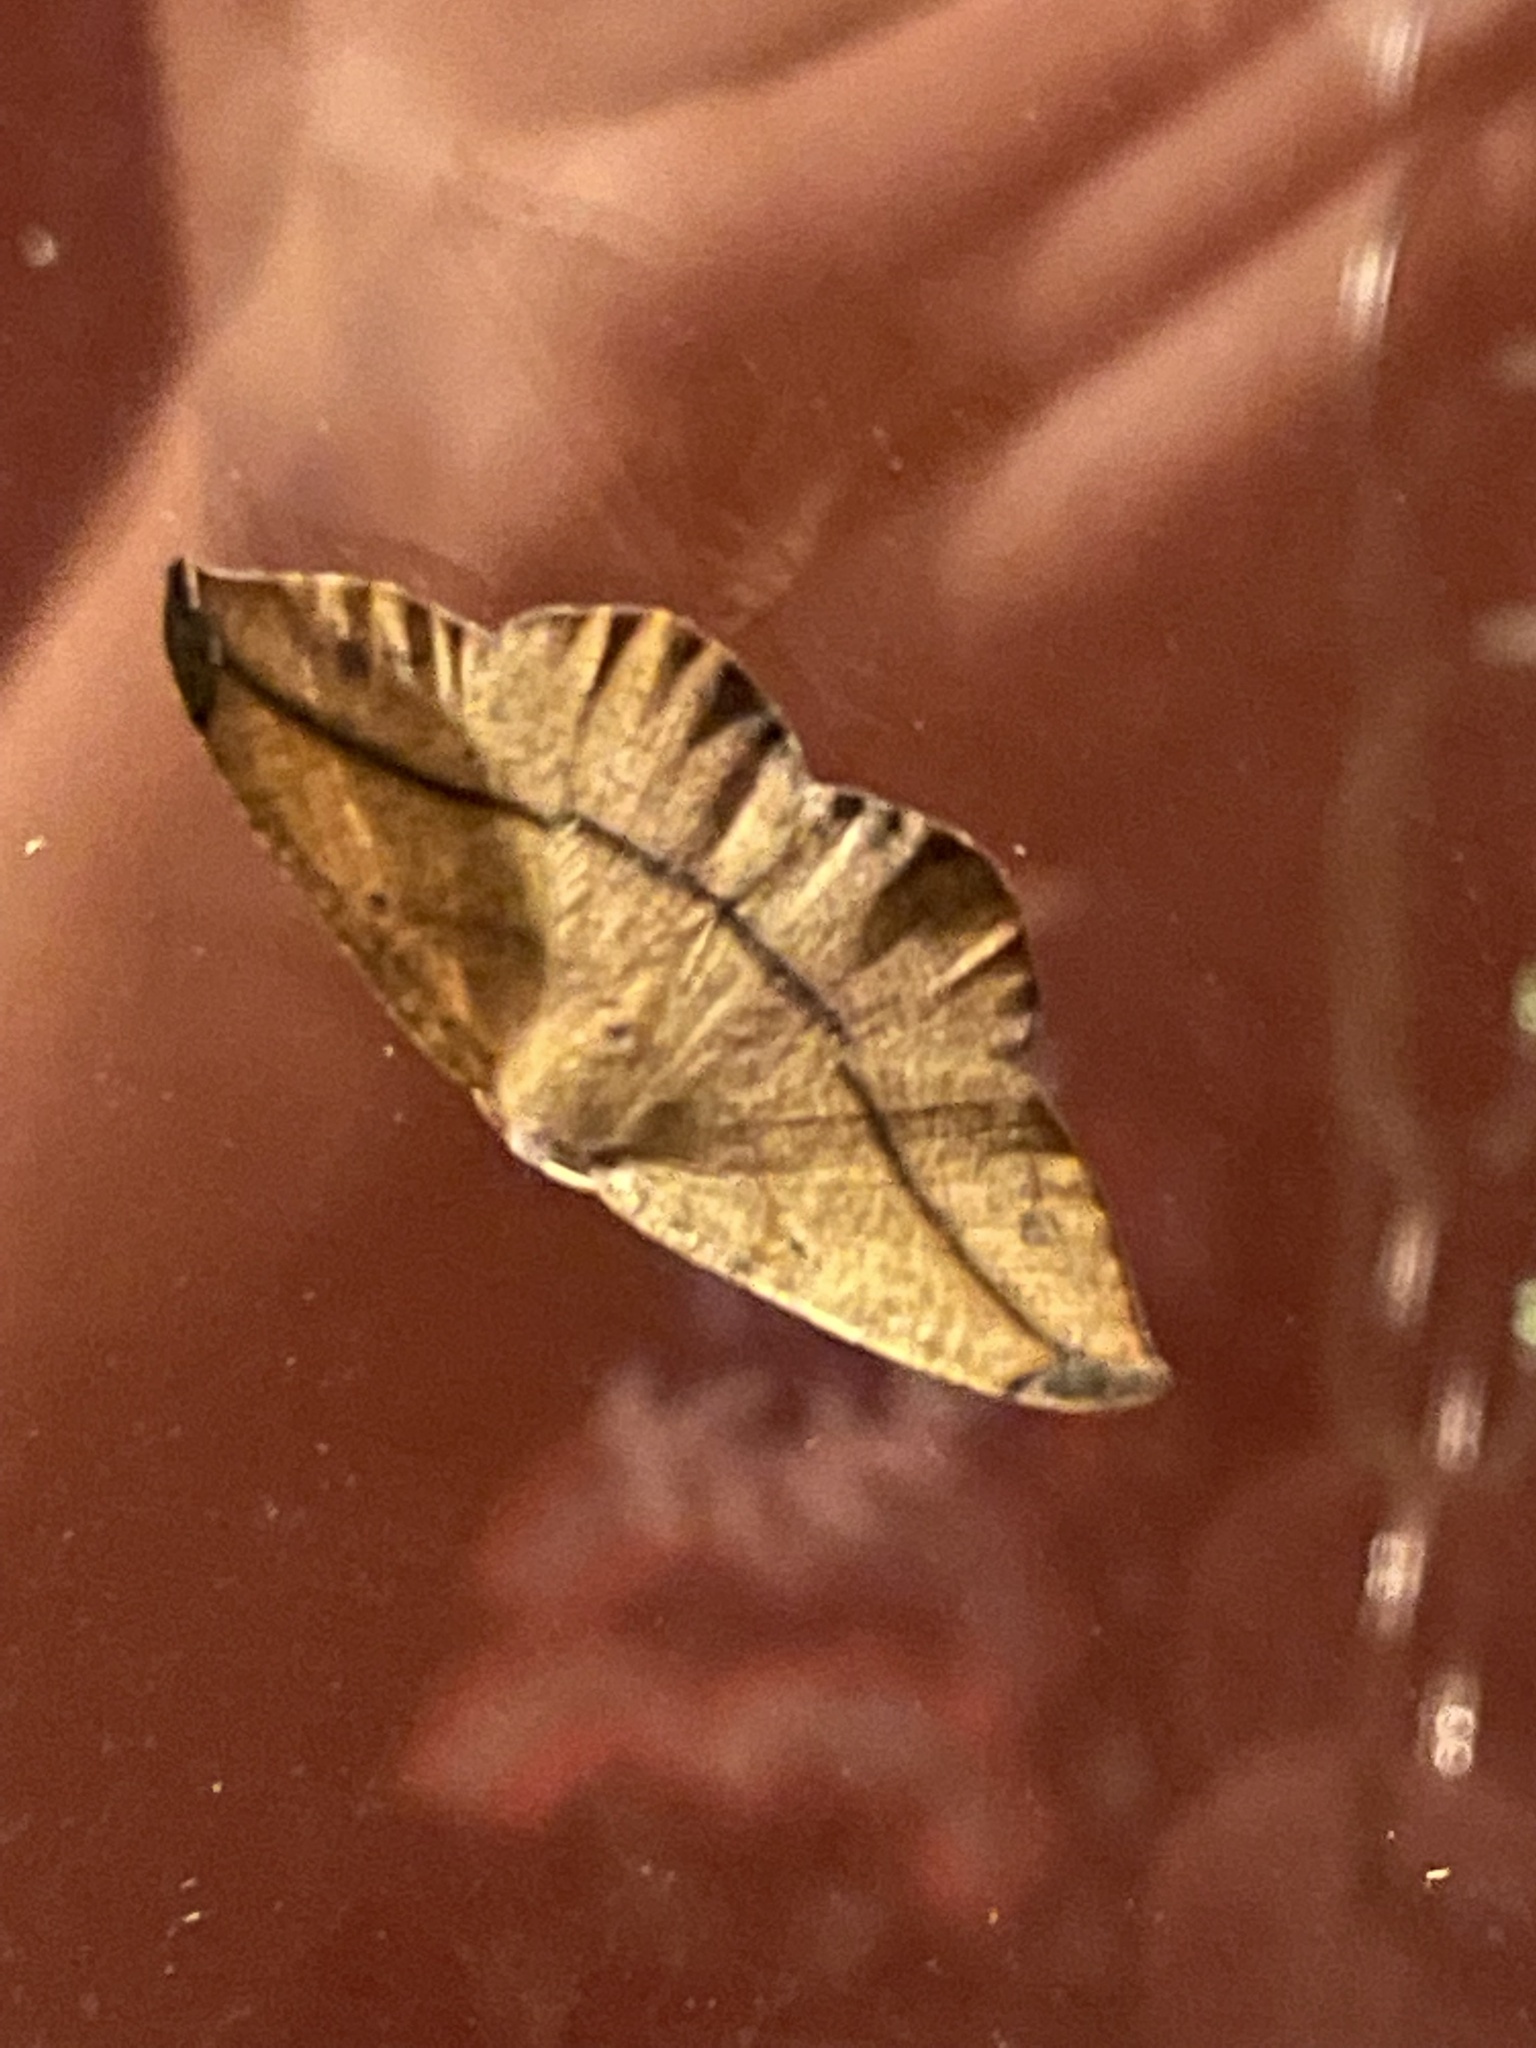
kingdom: Animalia
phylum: Arthropoda
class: Insecta
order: Lepidoptera
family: Geometridae
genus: Patalene
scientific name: Patalene olyzonaria
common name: Juniper geometer moth
